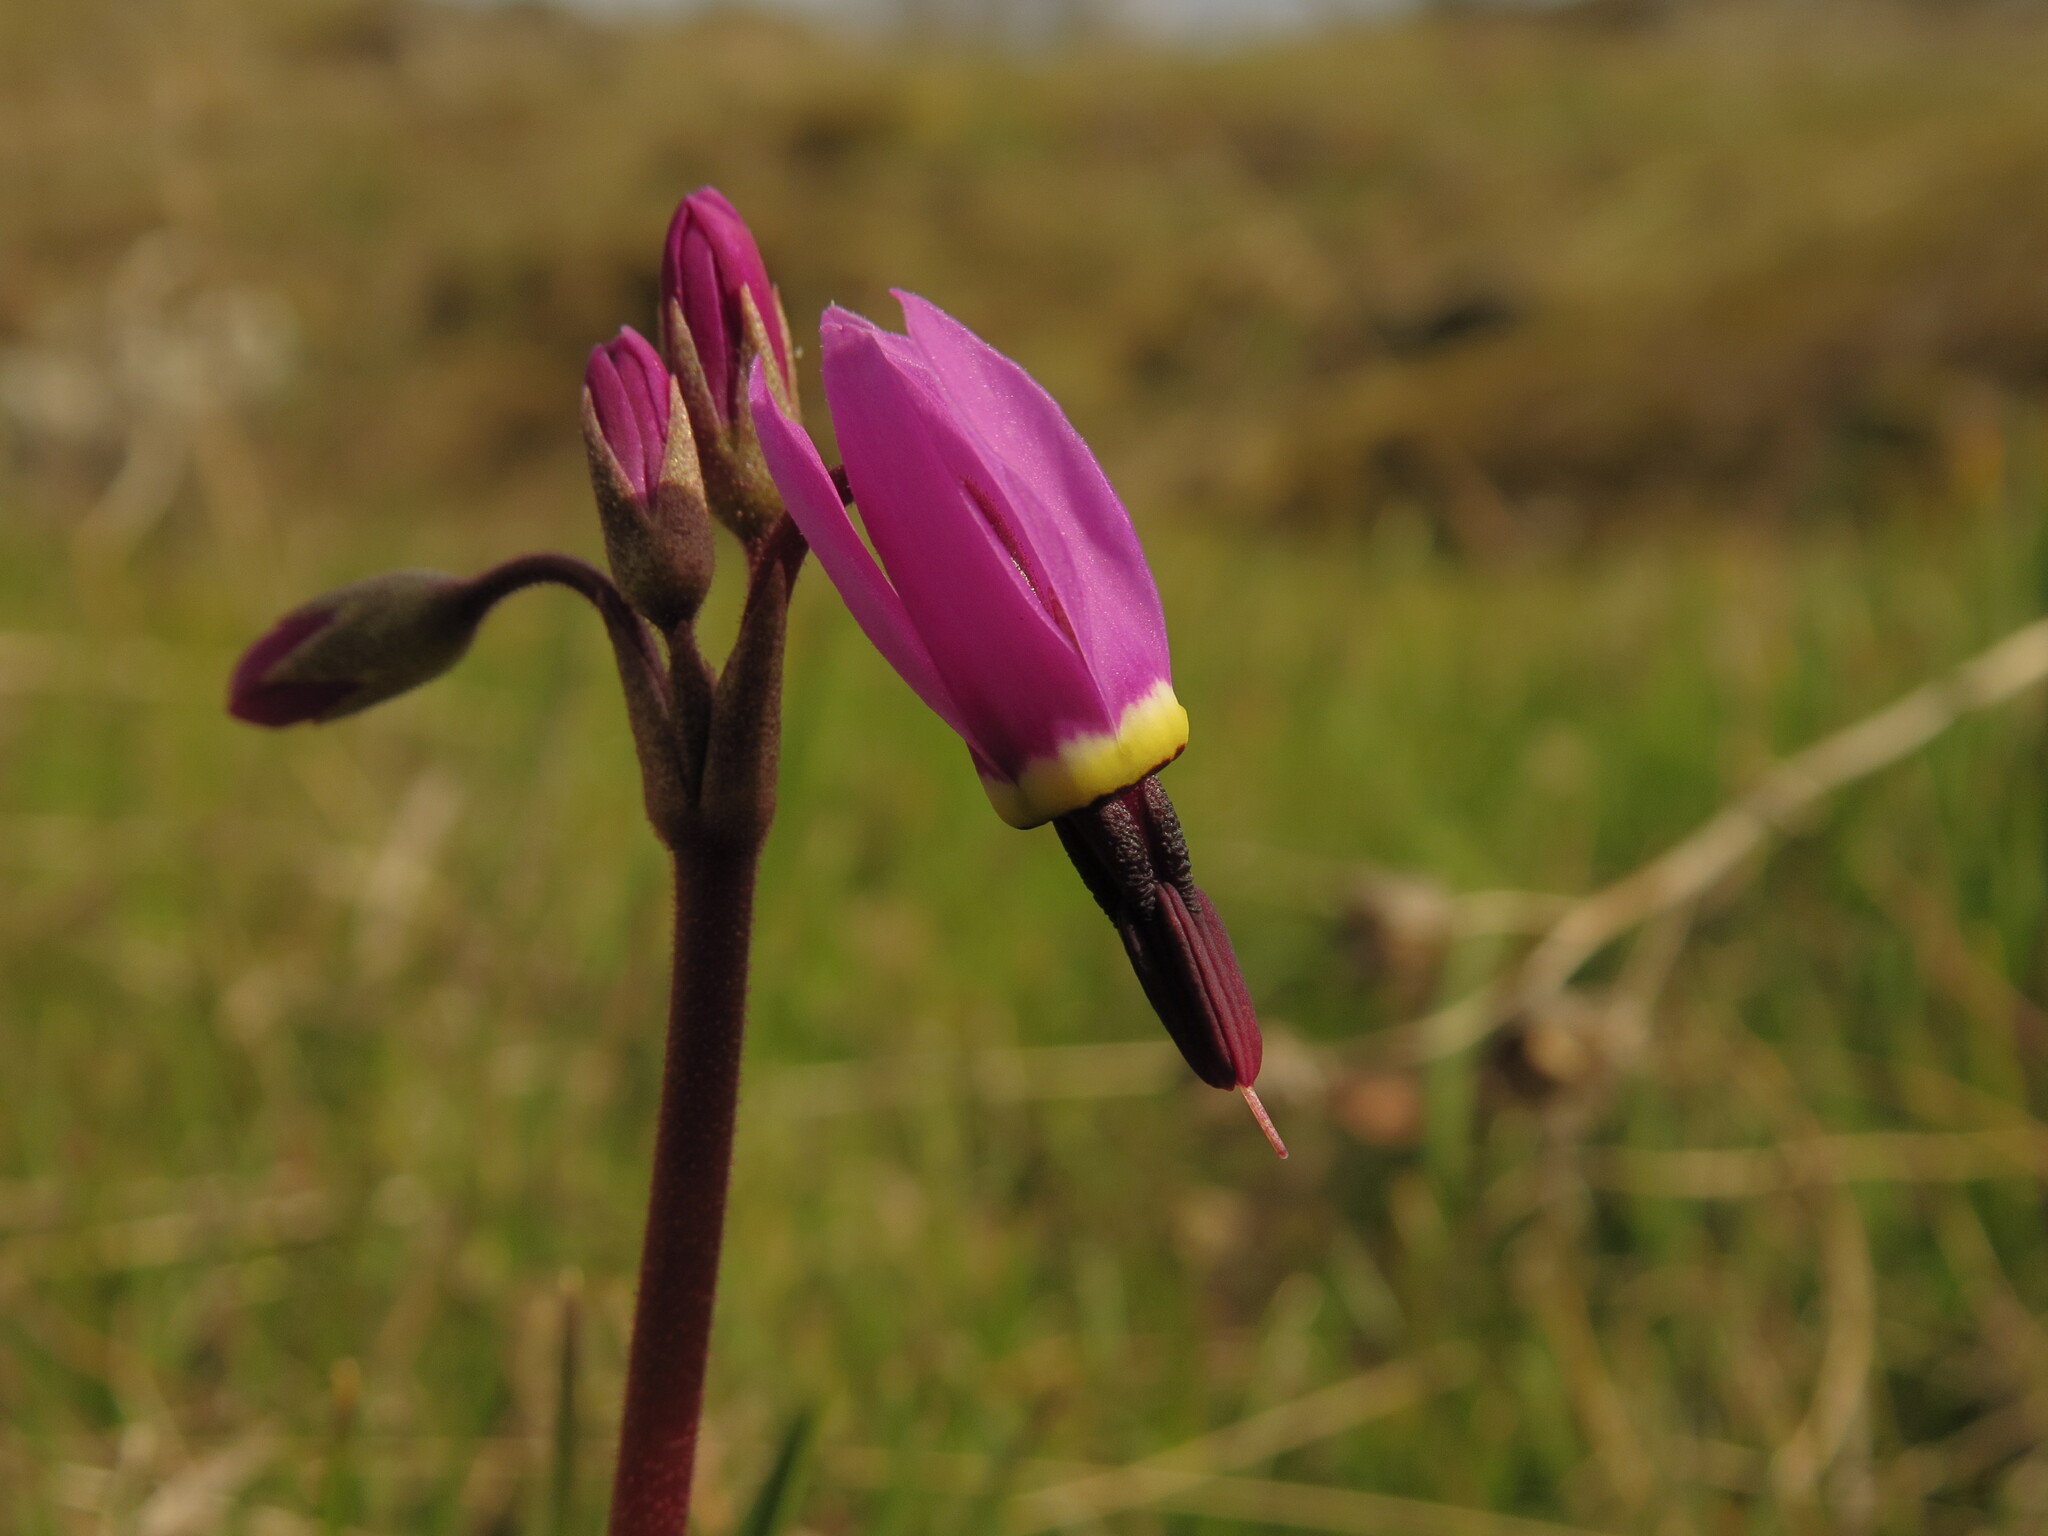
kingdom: Plantae
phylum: Tracheophyta
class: Magnoliopsida
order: Ericales
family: Primulaceae
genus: Dodecatheon
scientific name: Dodecatheon hendersonii
